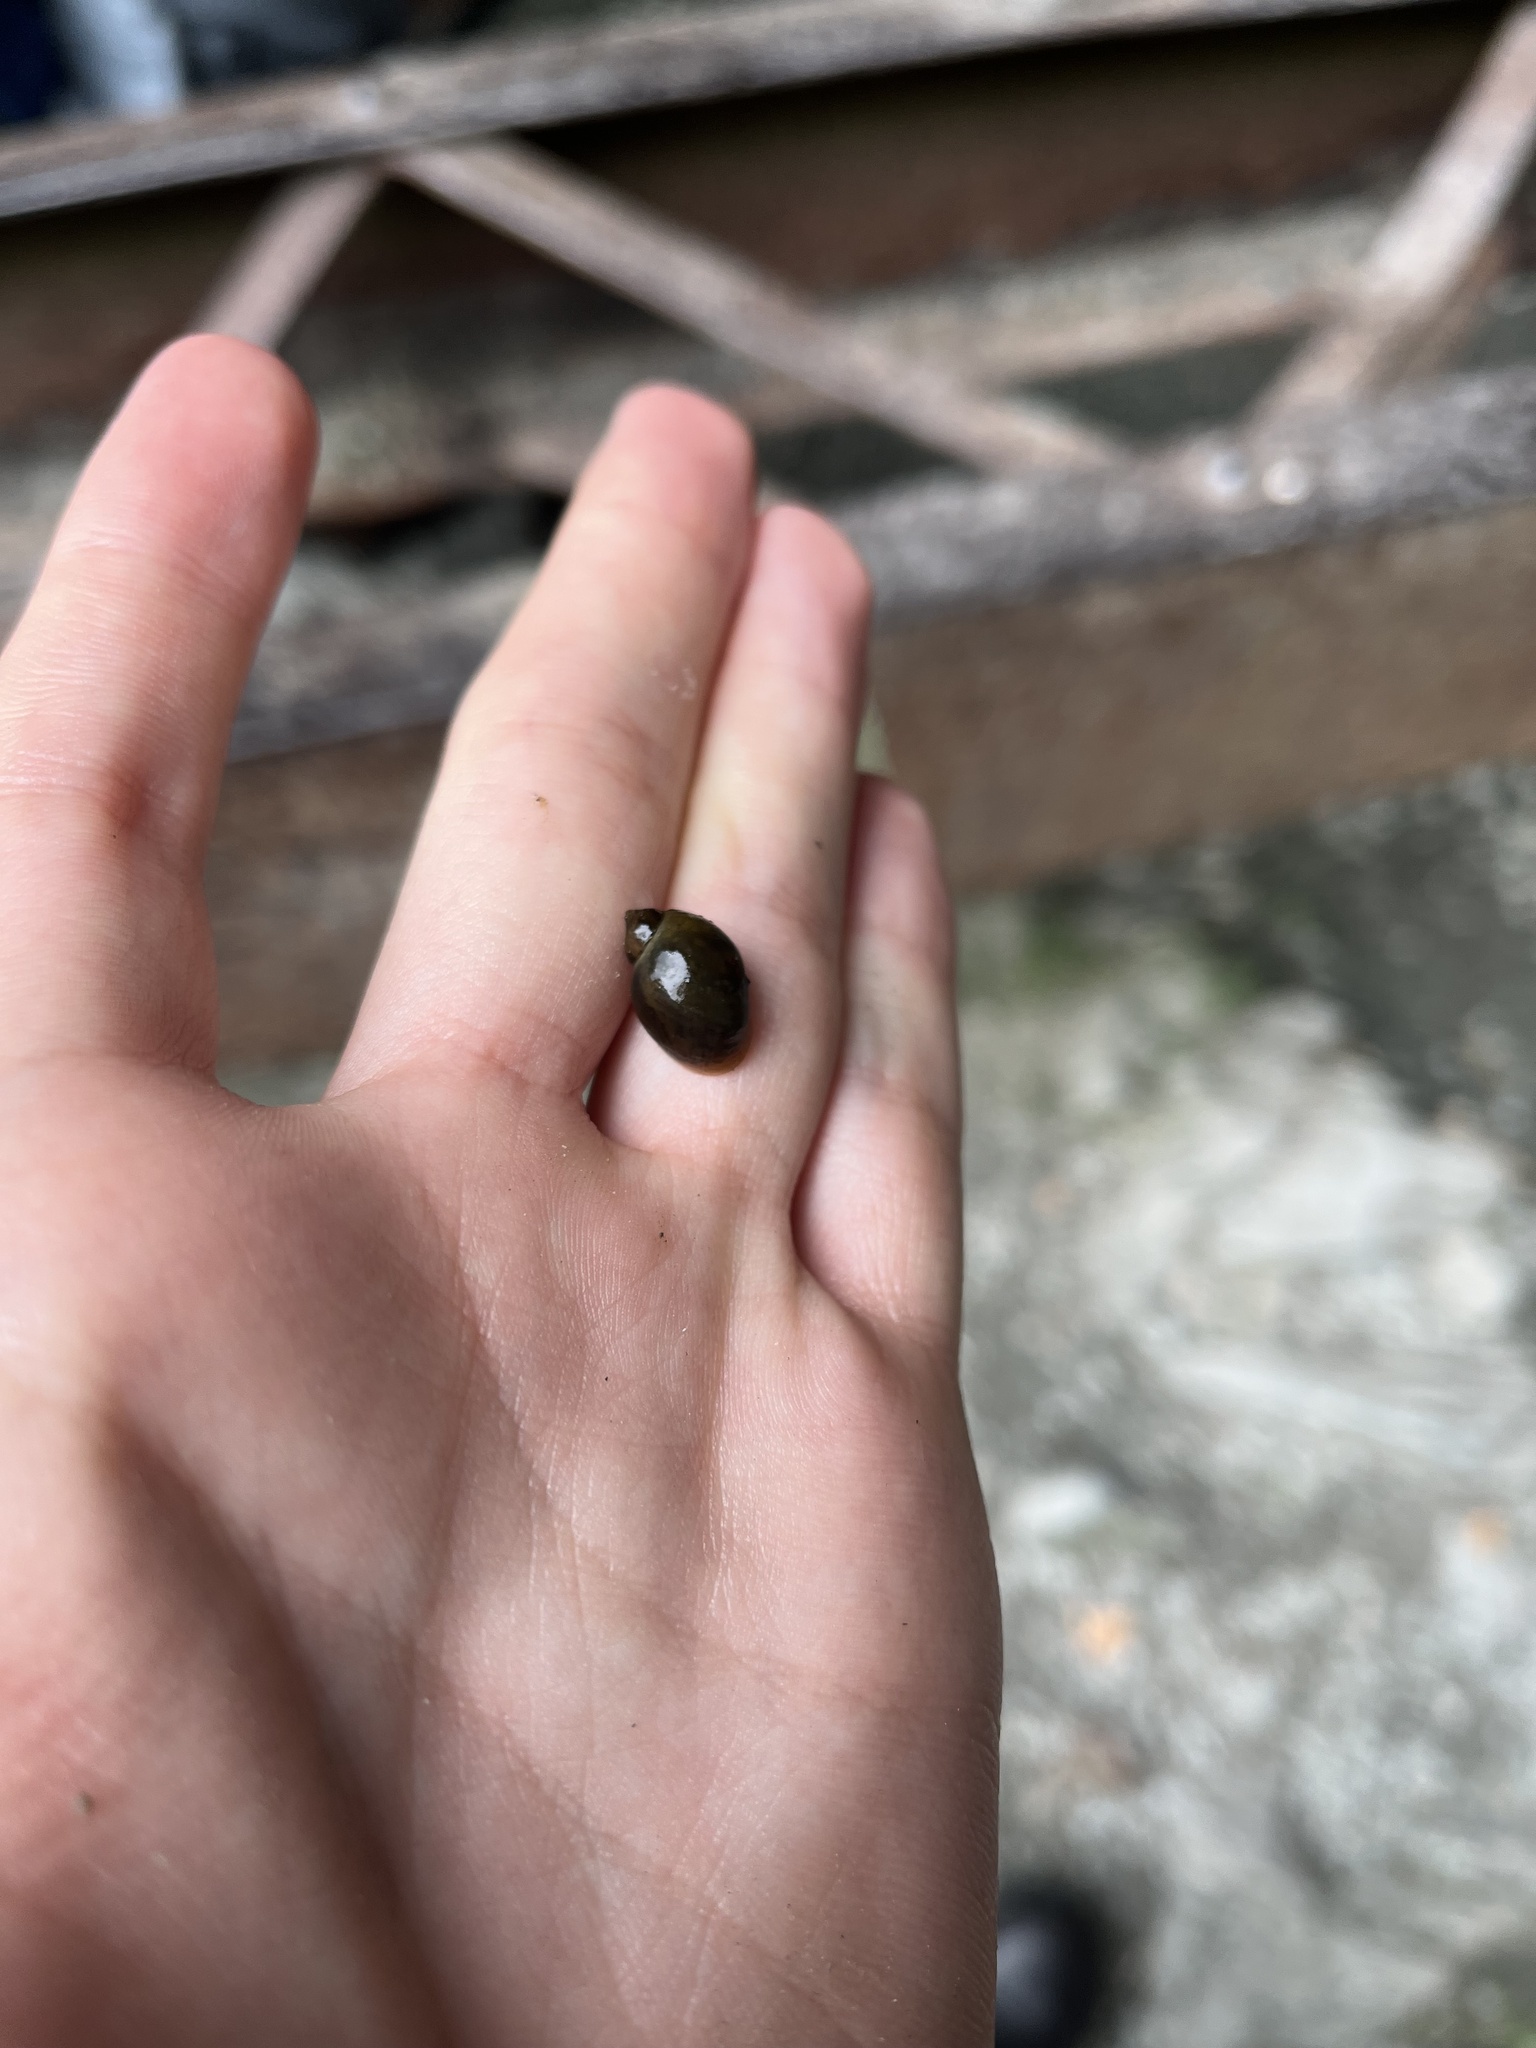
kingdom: Animalia
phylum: Mollusca
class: Gastropoda
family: Lymnaeidae
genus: Ampullaceana
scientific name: Ampullaceana balthica
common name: Wandering pond snail
